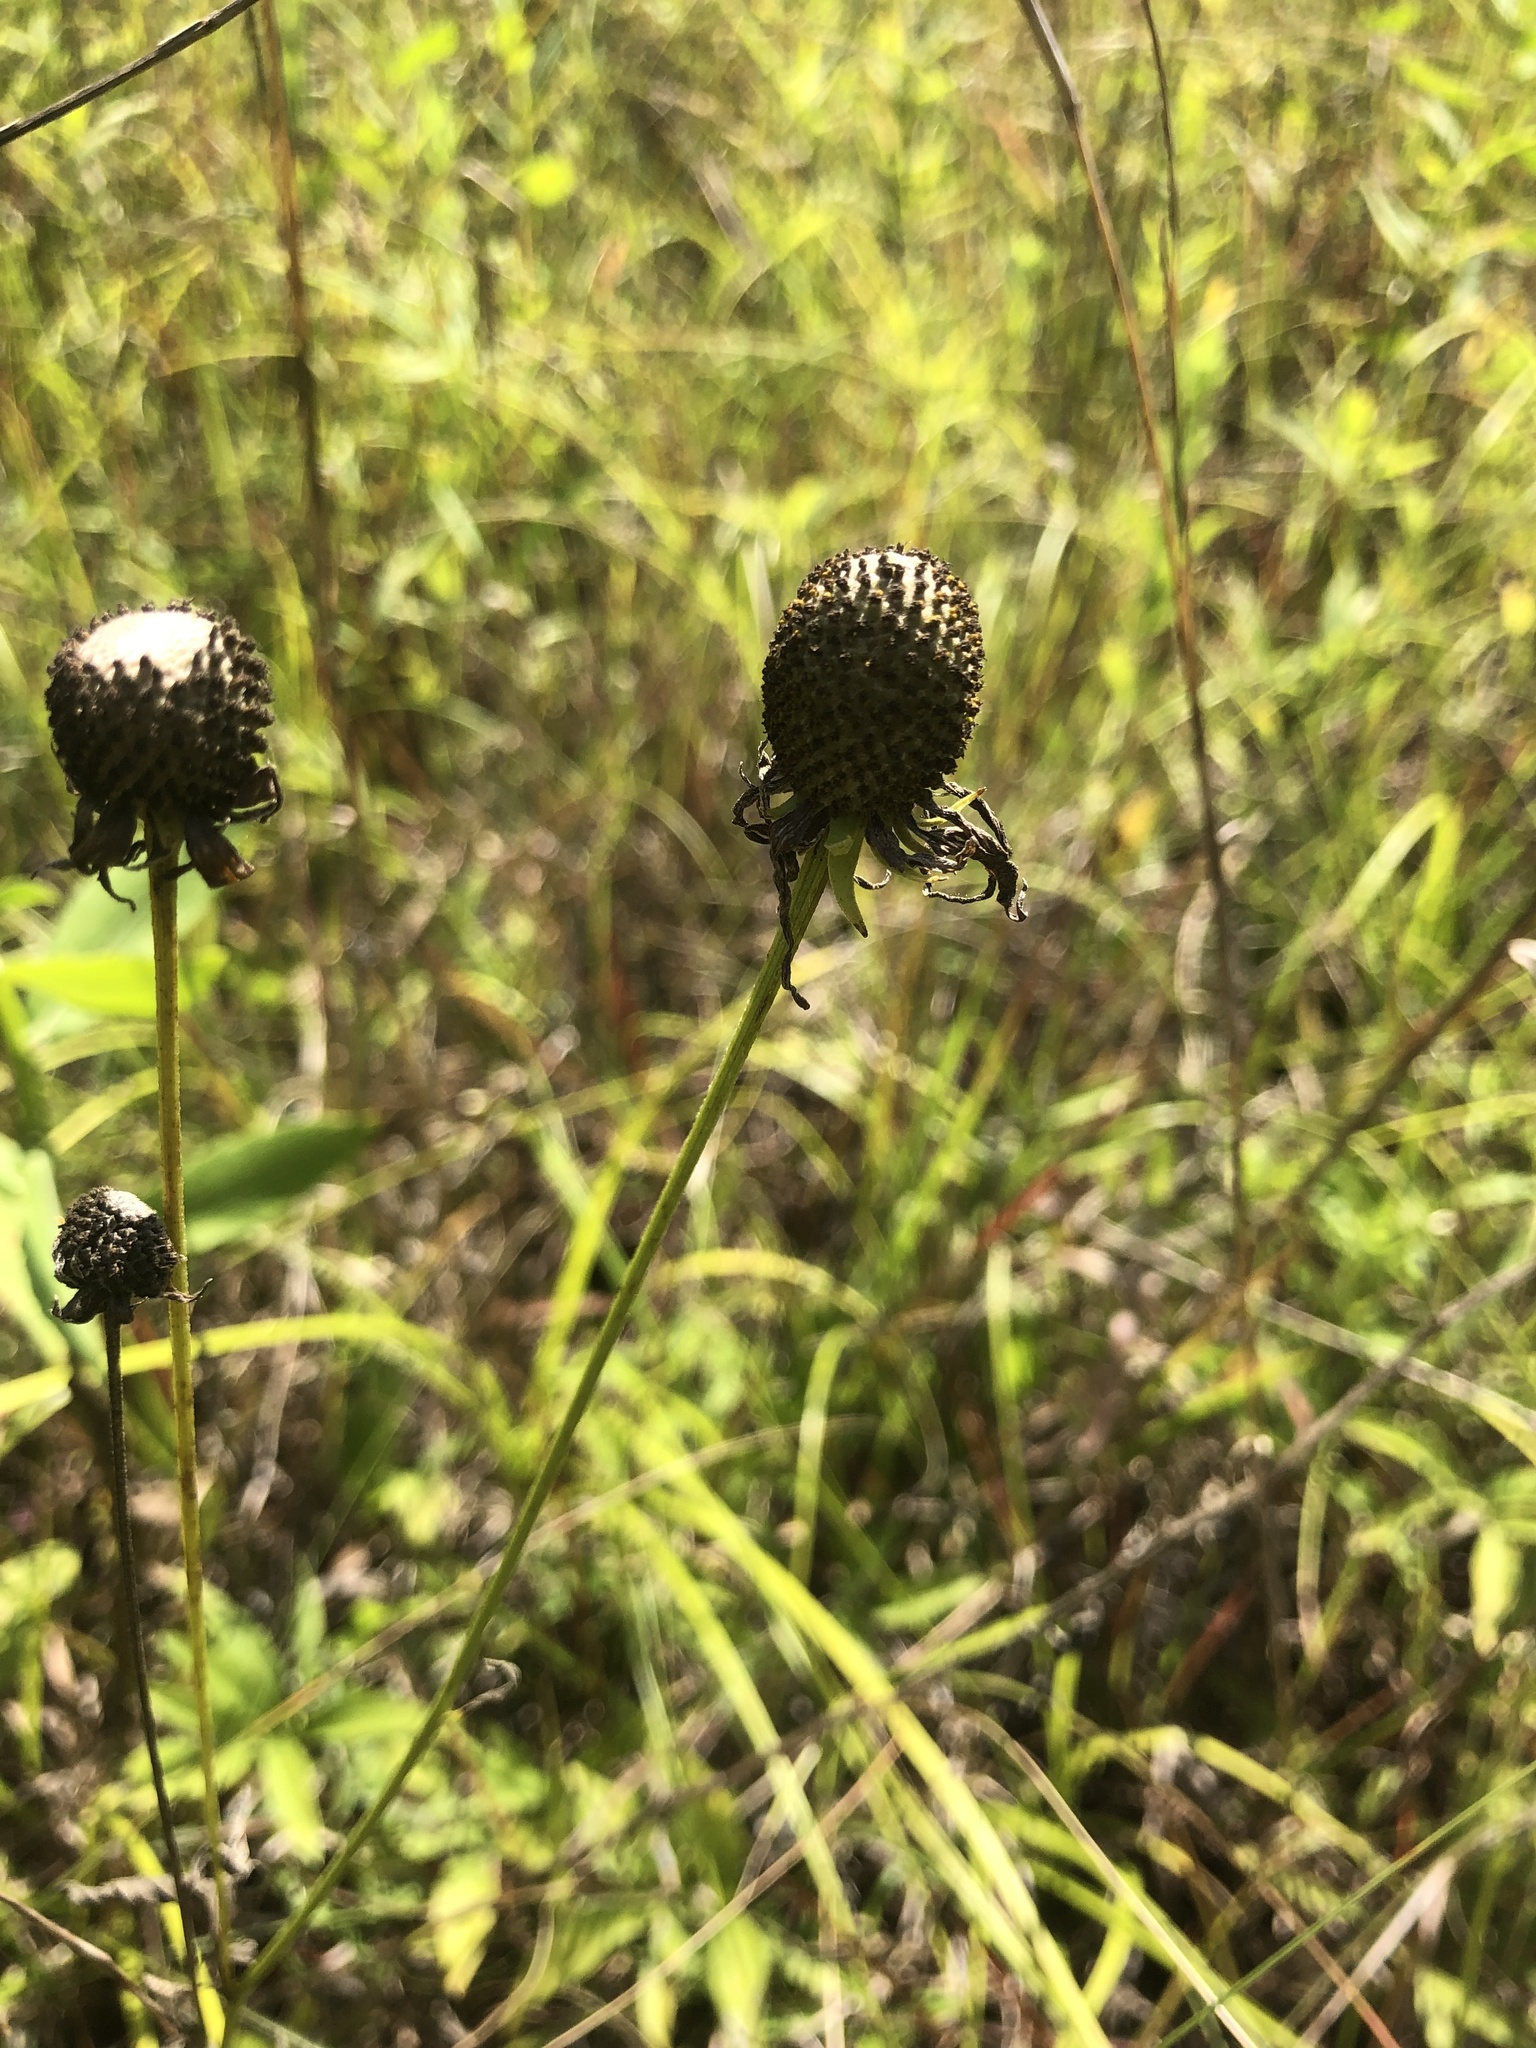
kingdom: Plantae
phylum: Tracheophyta
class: Magnoliopsida
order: Asterales
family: Asteraceae
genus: Ratibida
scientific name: Ratibida pinnata
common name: Drooping prairie-coneflower
